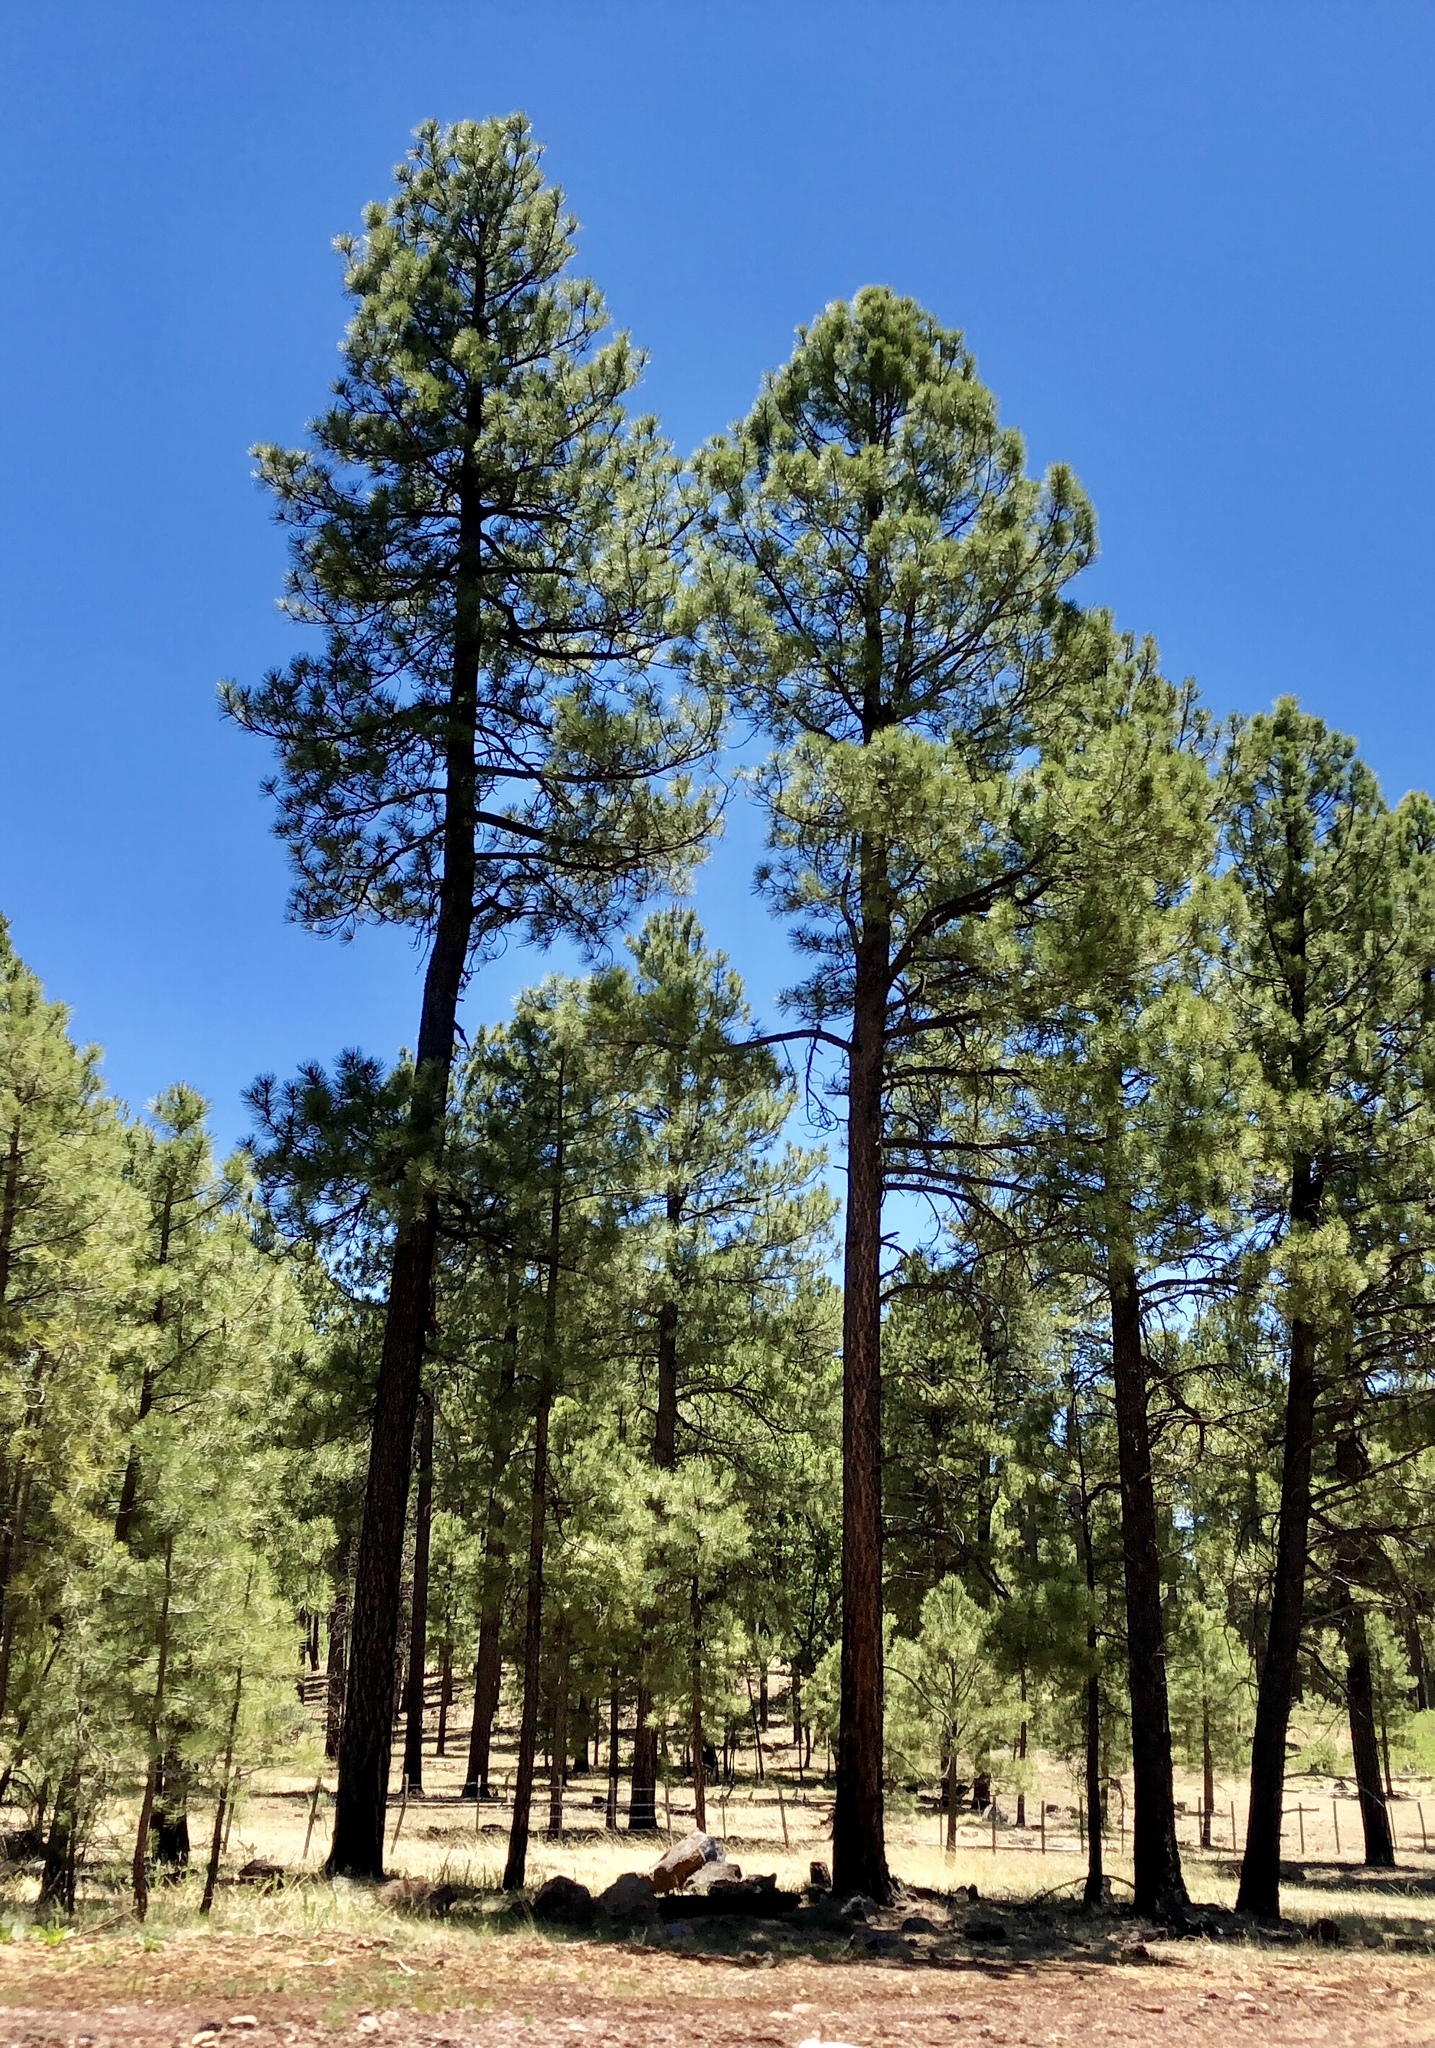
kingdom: Plantae
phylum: Tracheophyta
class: Pinopsida
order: Pinales
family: Pinaceae
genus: Pinus
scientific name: Pinus ponderosa
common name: Western yellow-pine
